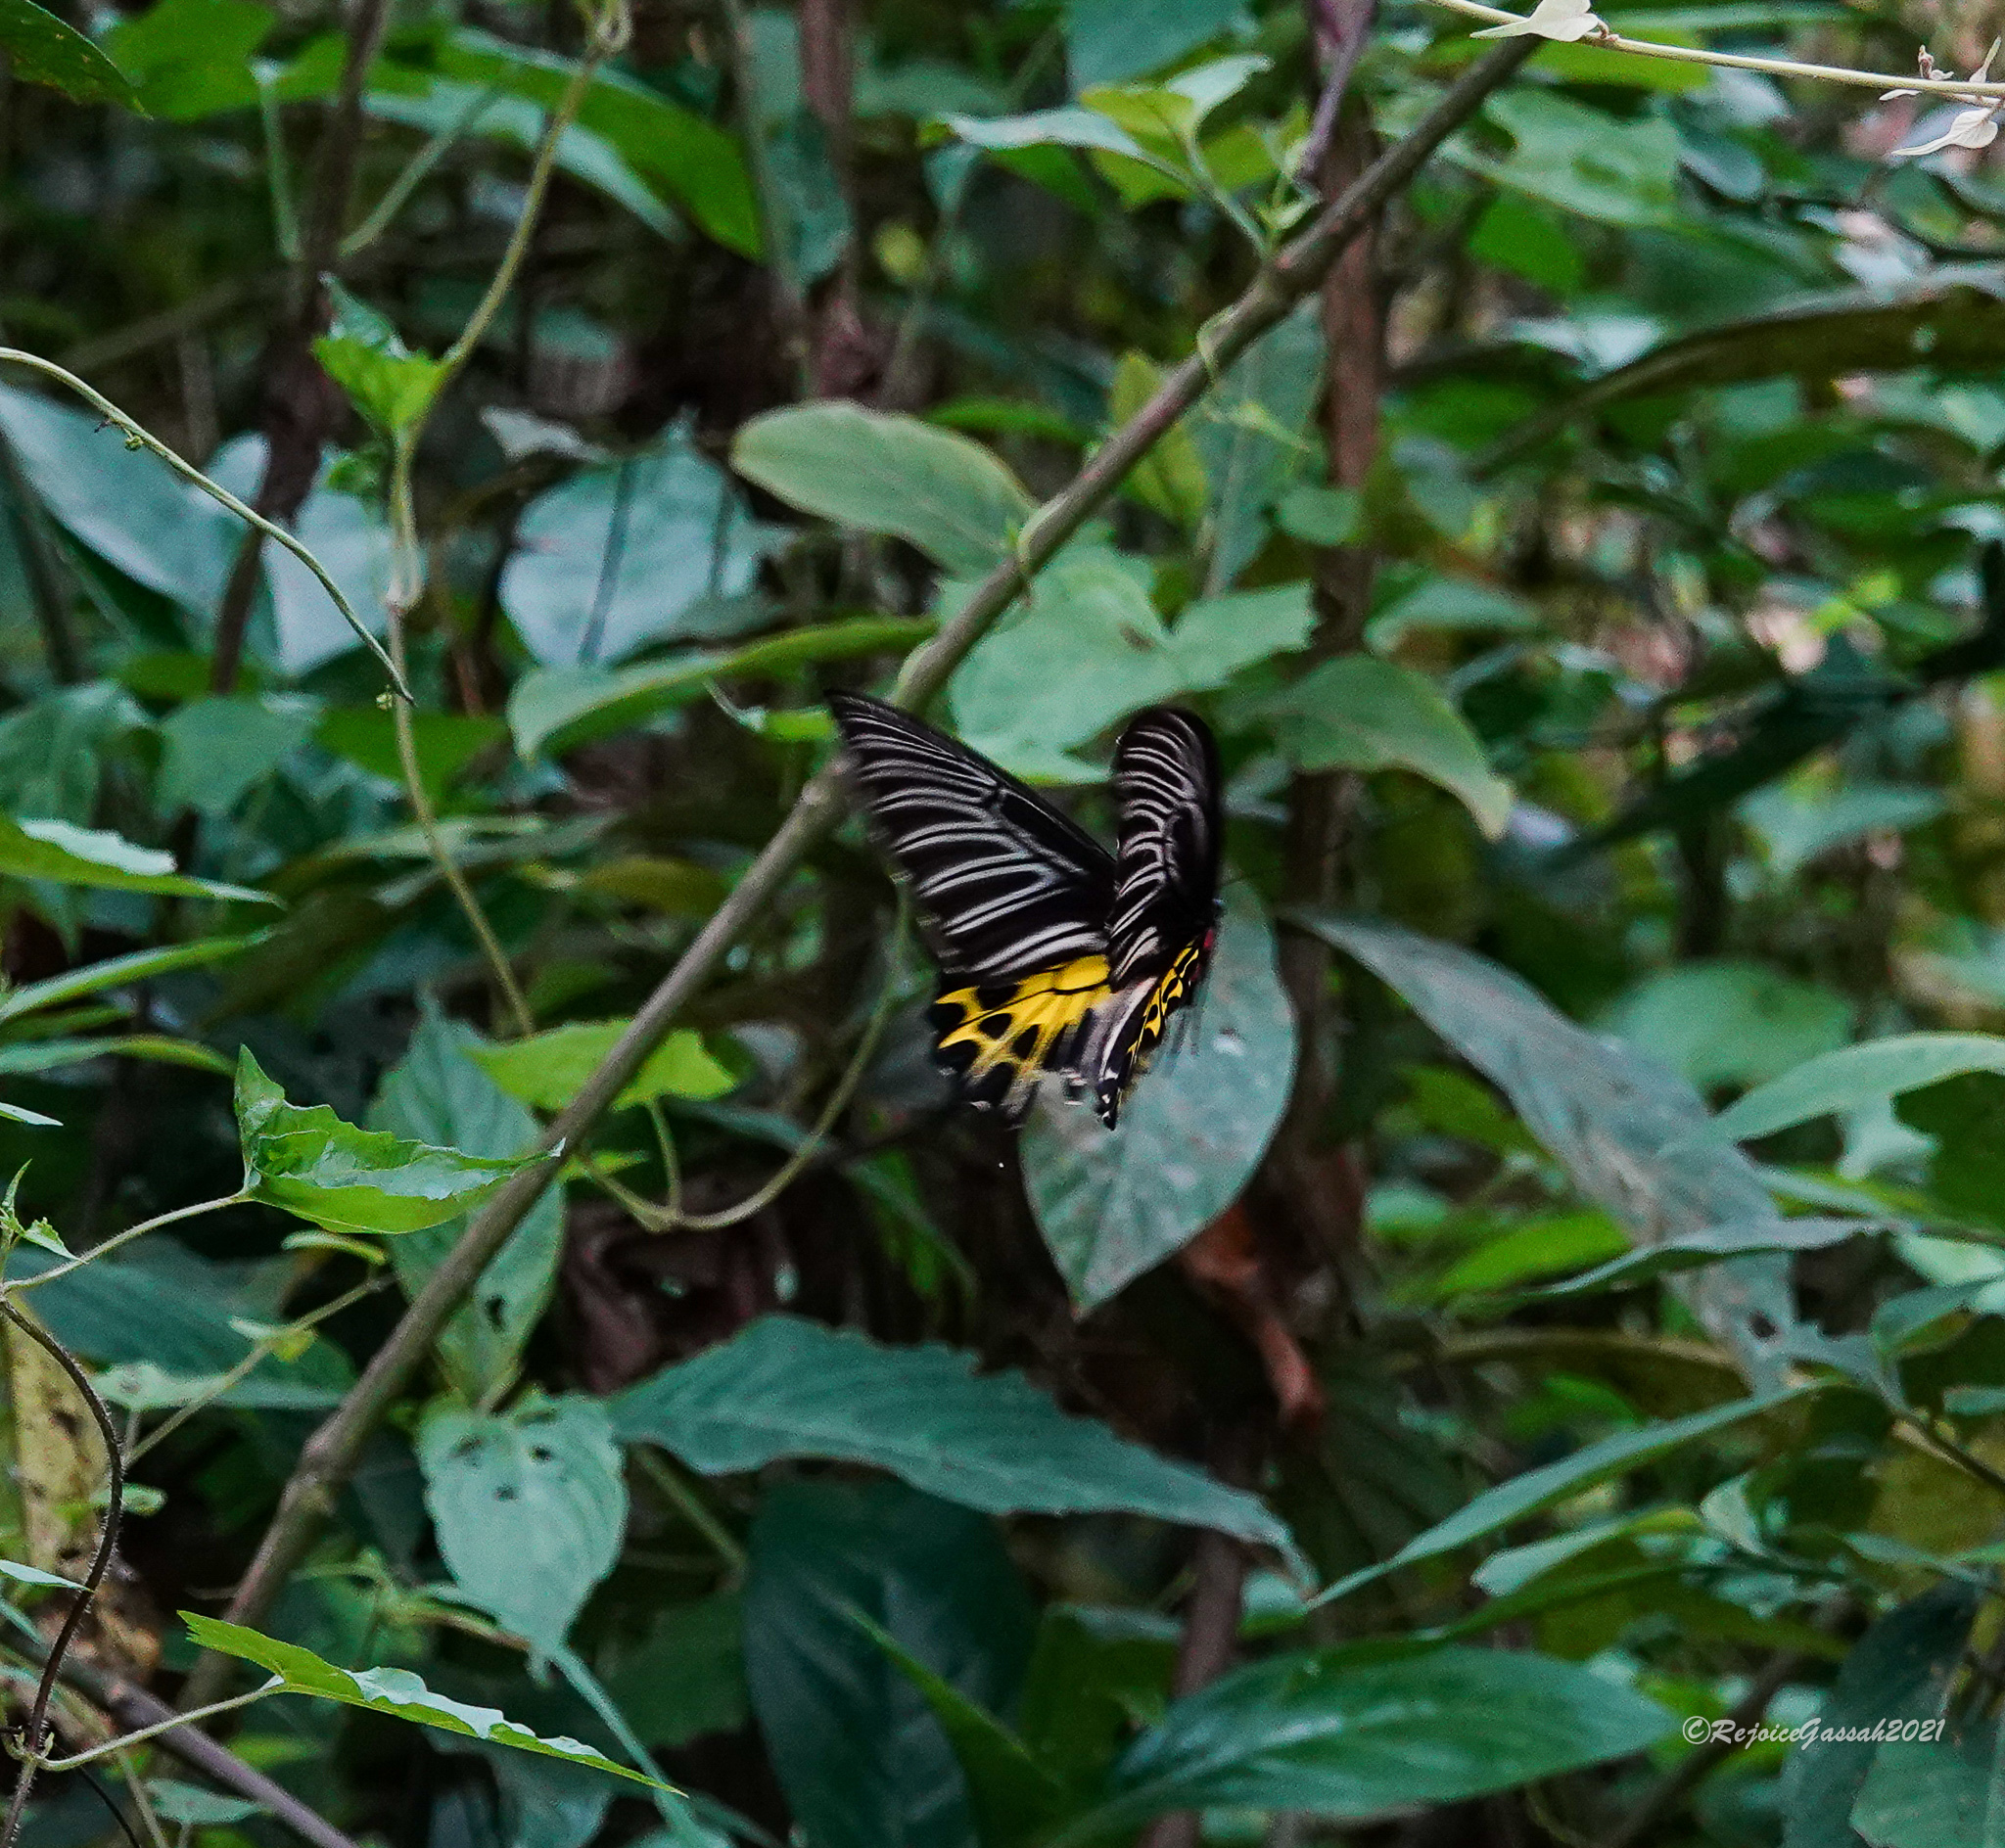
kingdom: Animalia
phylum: Arthropoda
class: Insecta
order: Lepidoptera
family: Papilionidae
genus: Troides
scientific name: Troides helena
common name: Common birdwing
